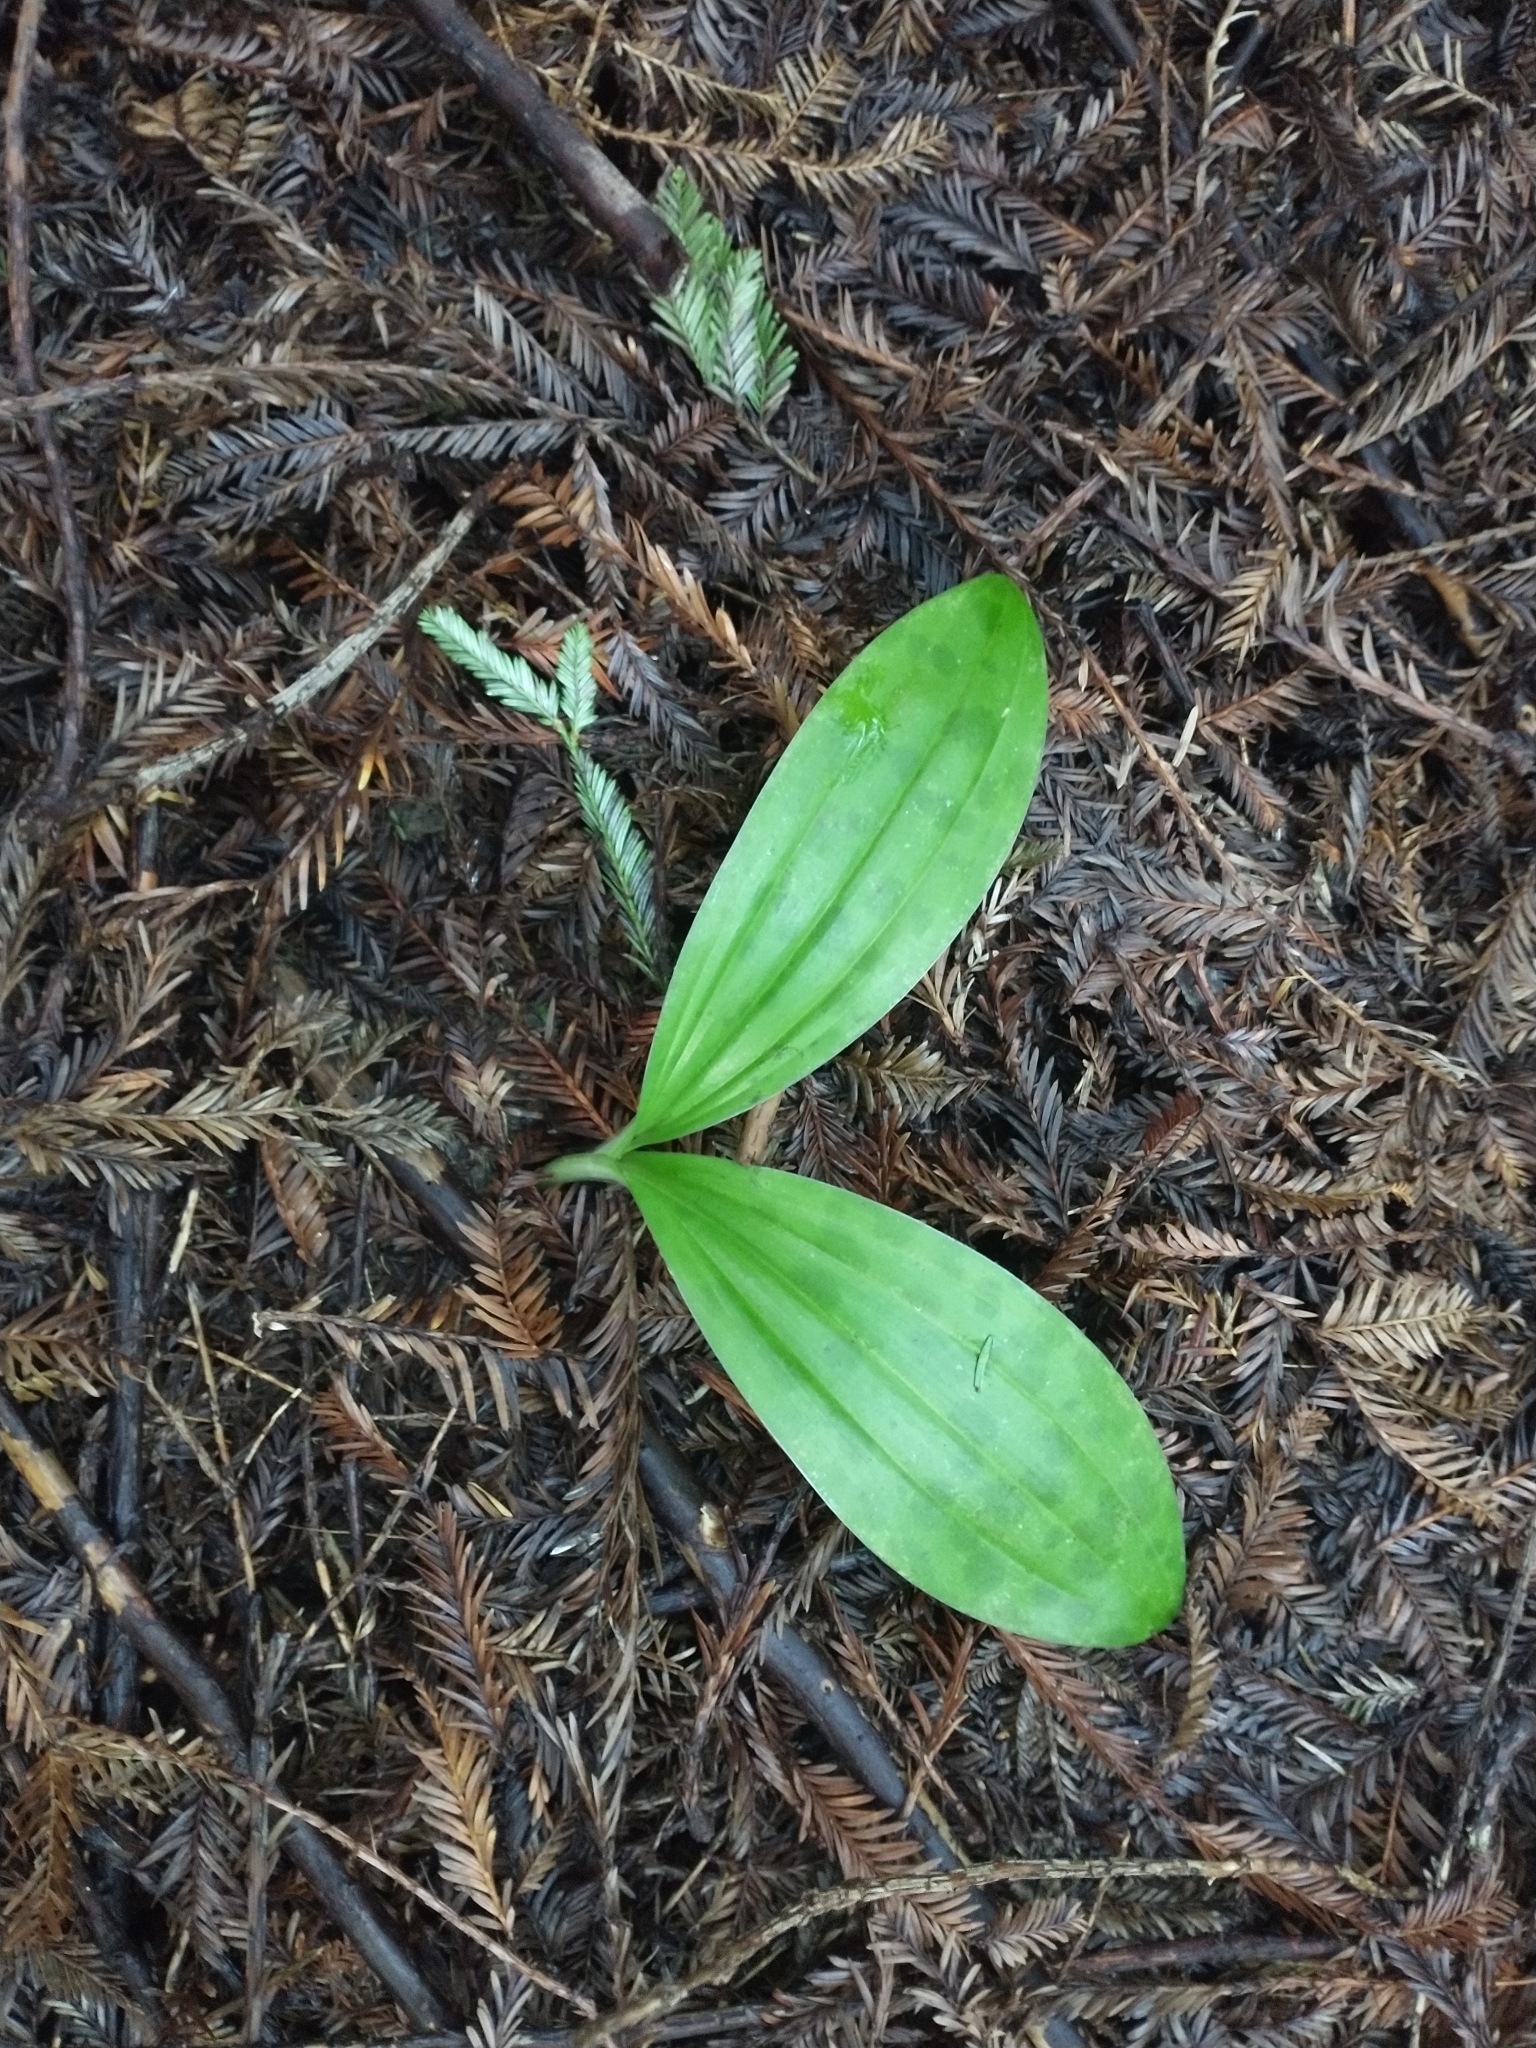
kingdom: Plantae
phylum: Tracheophyta
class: Liliopsida
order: Liliales
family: Liliaceae
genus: Scoliopus
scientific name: Scoliopus bigelovii
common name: Foetid adder's-tongue
